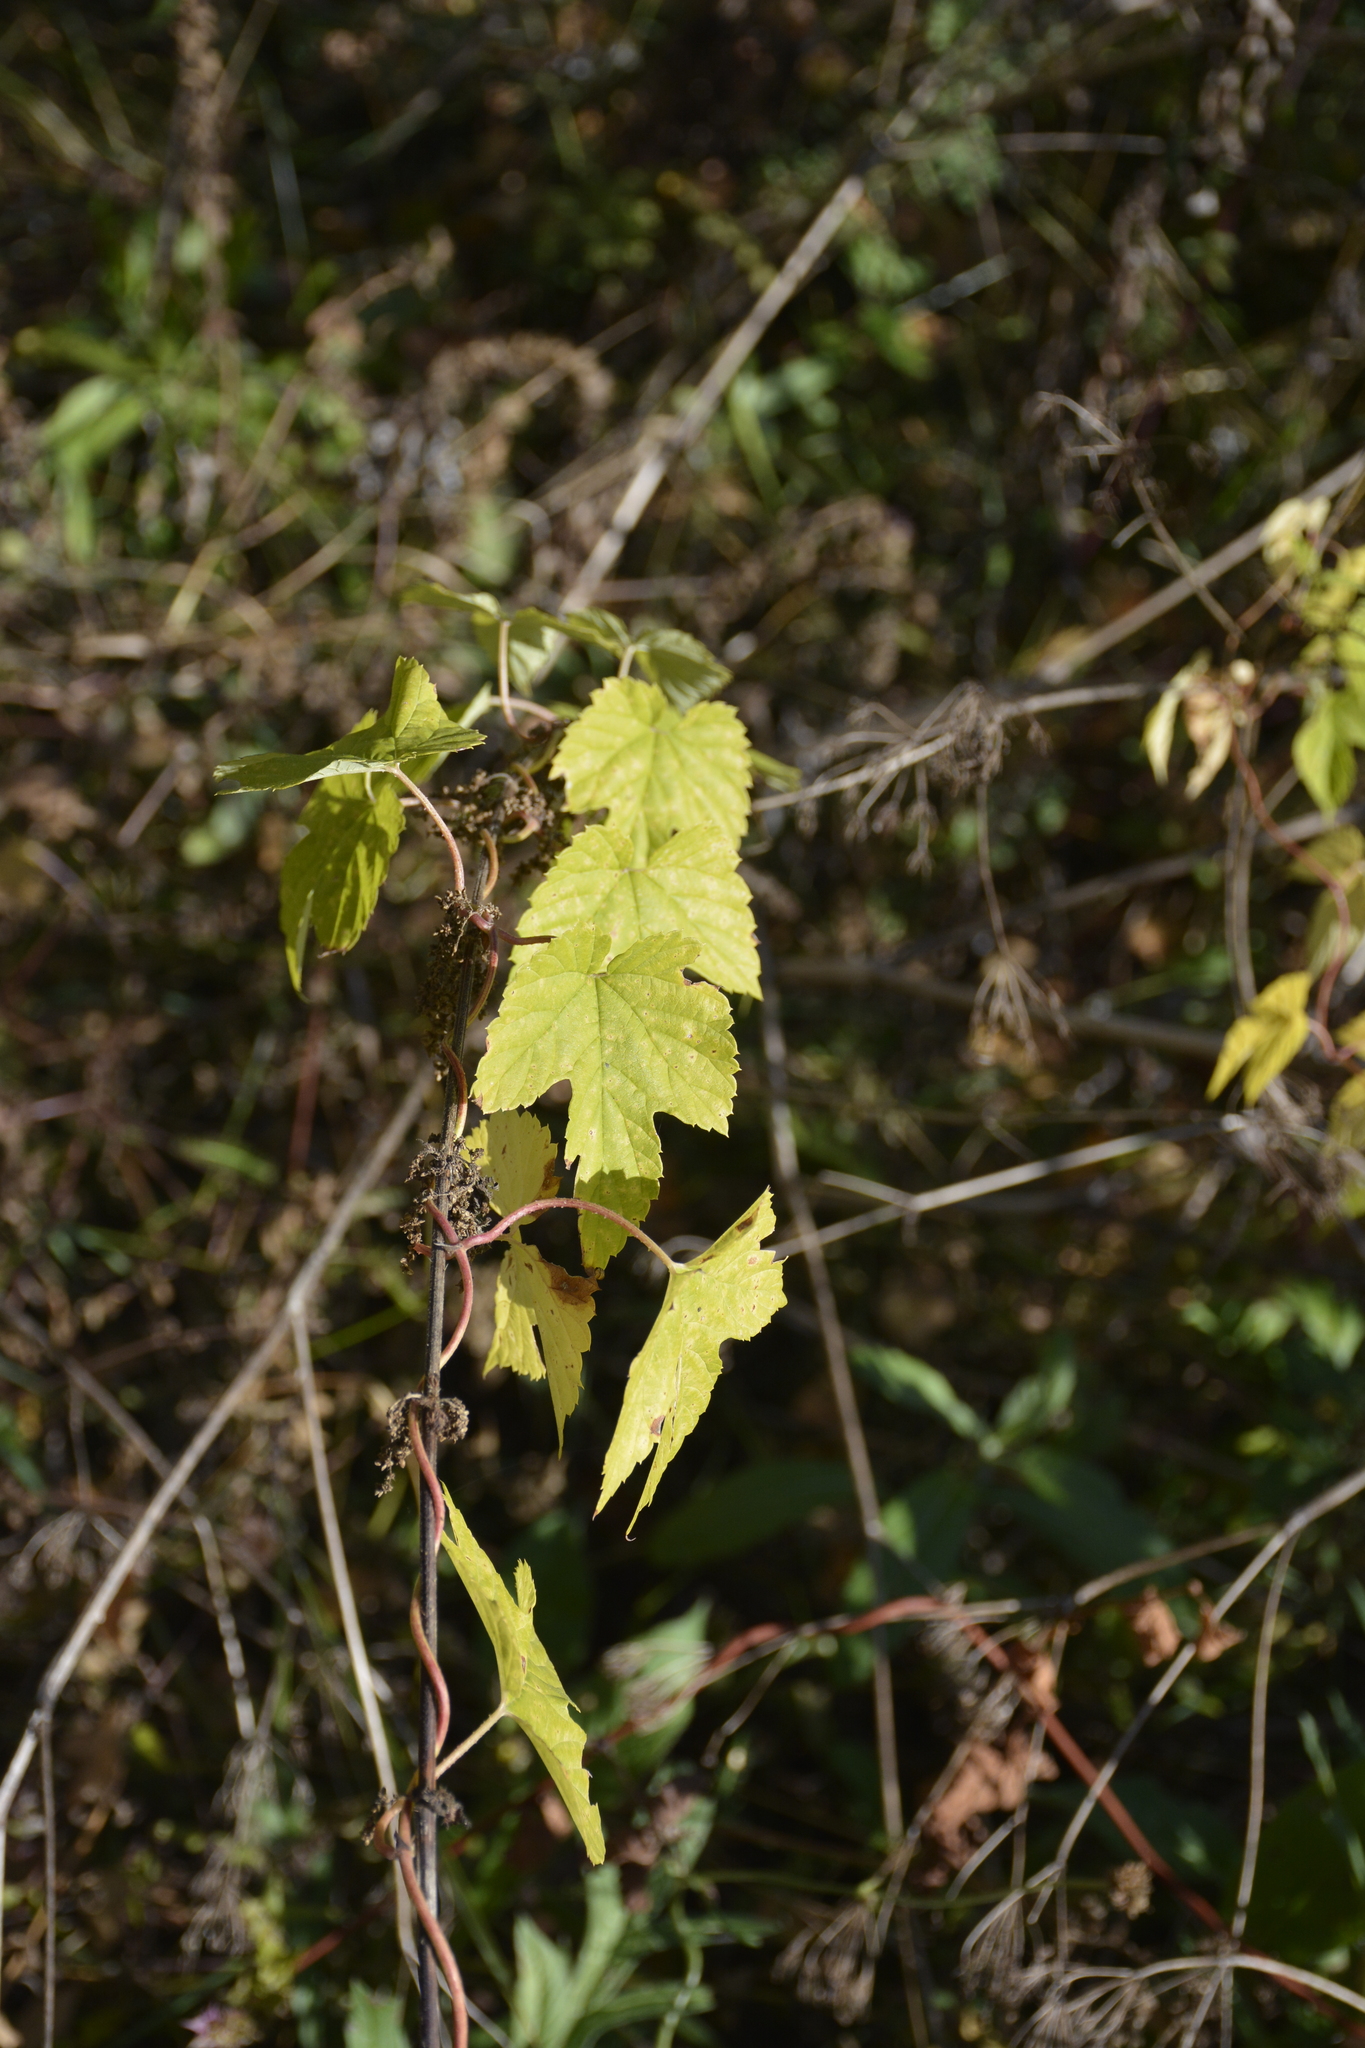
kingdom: Plantae
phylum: Tracheophyta
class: Magnoliopsida
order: Rosales
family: Cannabaceae
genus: Humulus
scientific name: Humulus lupulus
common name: Hop
